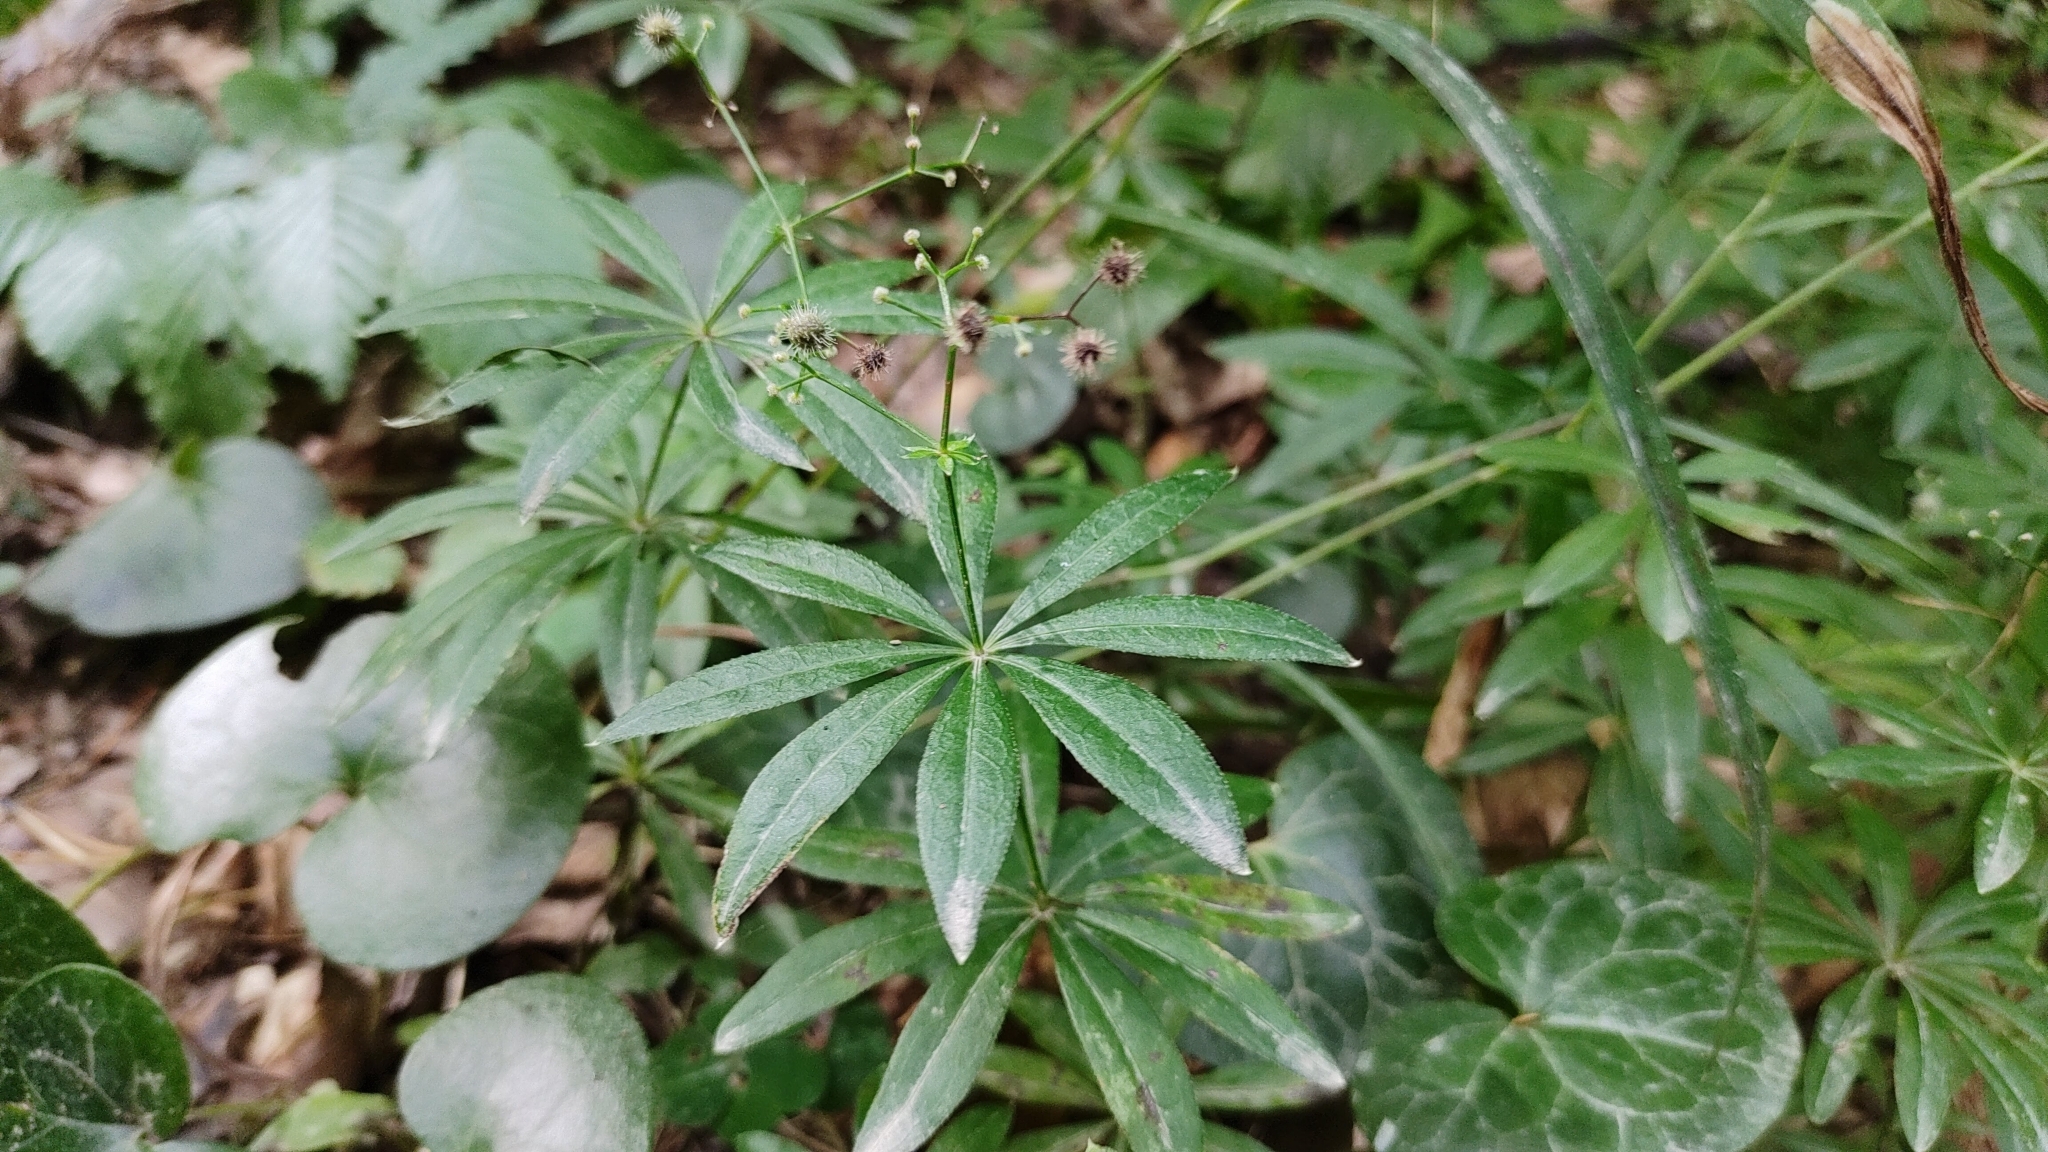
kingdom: Plantae
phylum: Tracheophyta
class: Magnoliopsida
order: Gentianales
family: Rubiaceae
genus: Galium
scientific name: Galium odoratum
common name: Sweet woodruff
